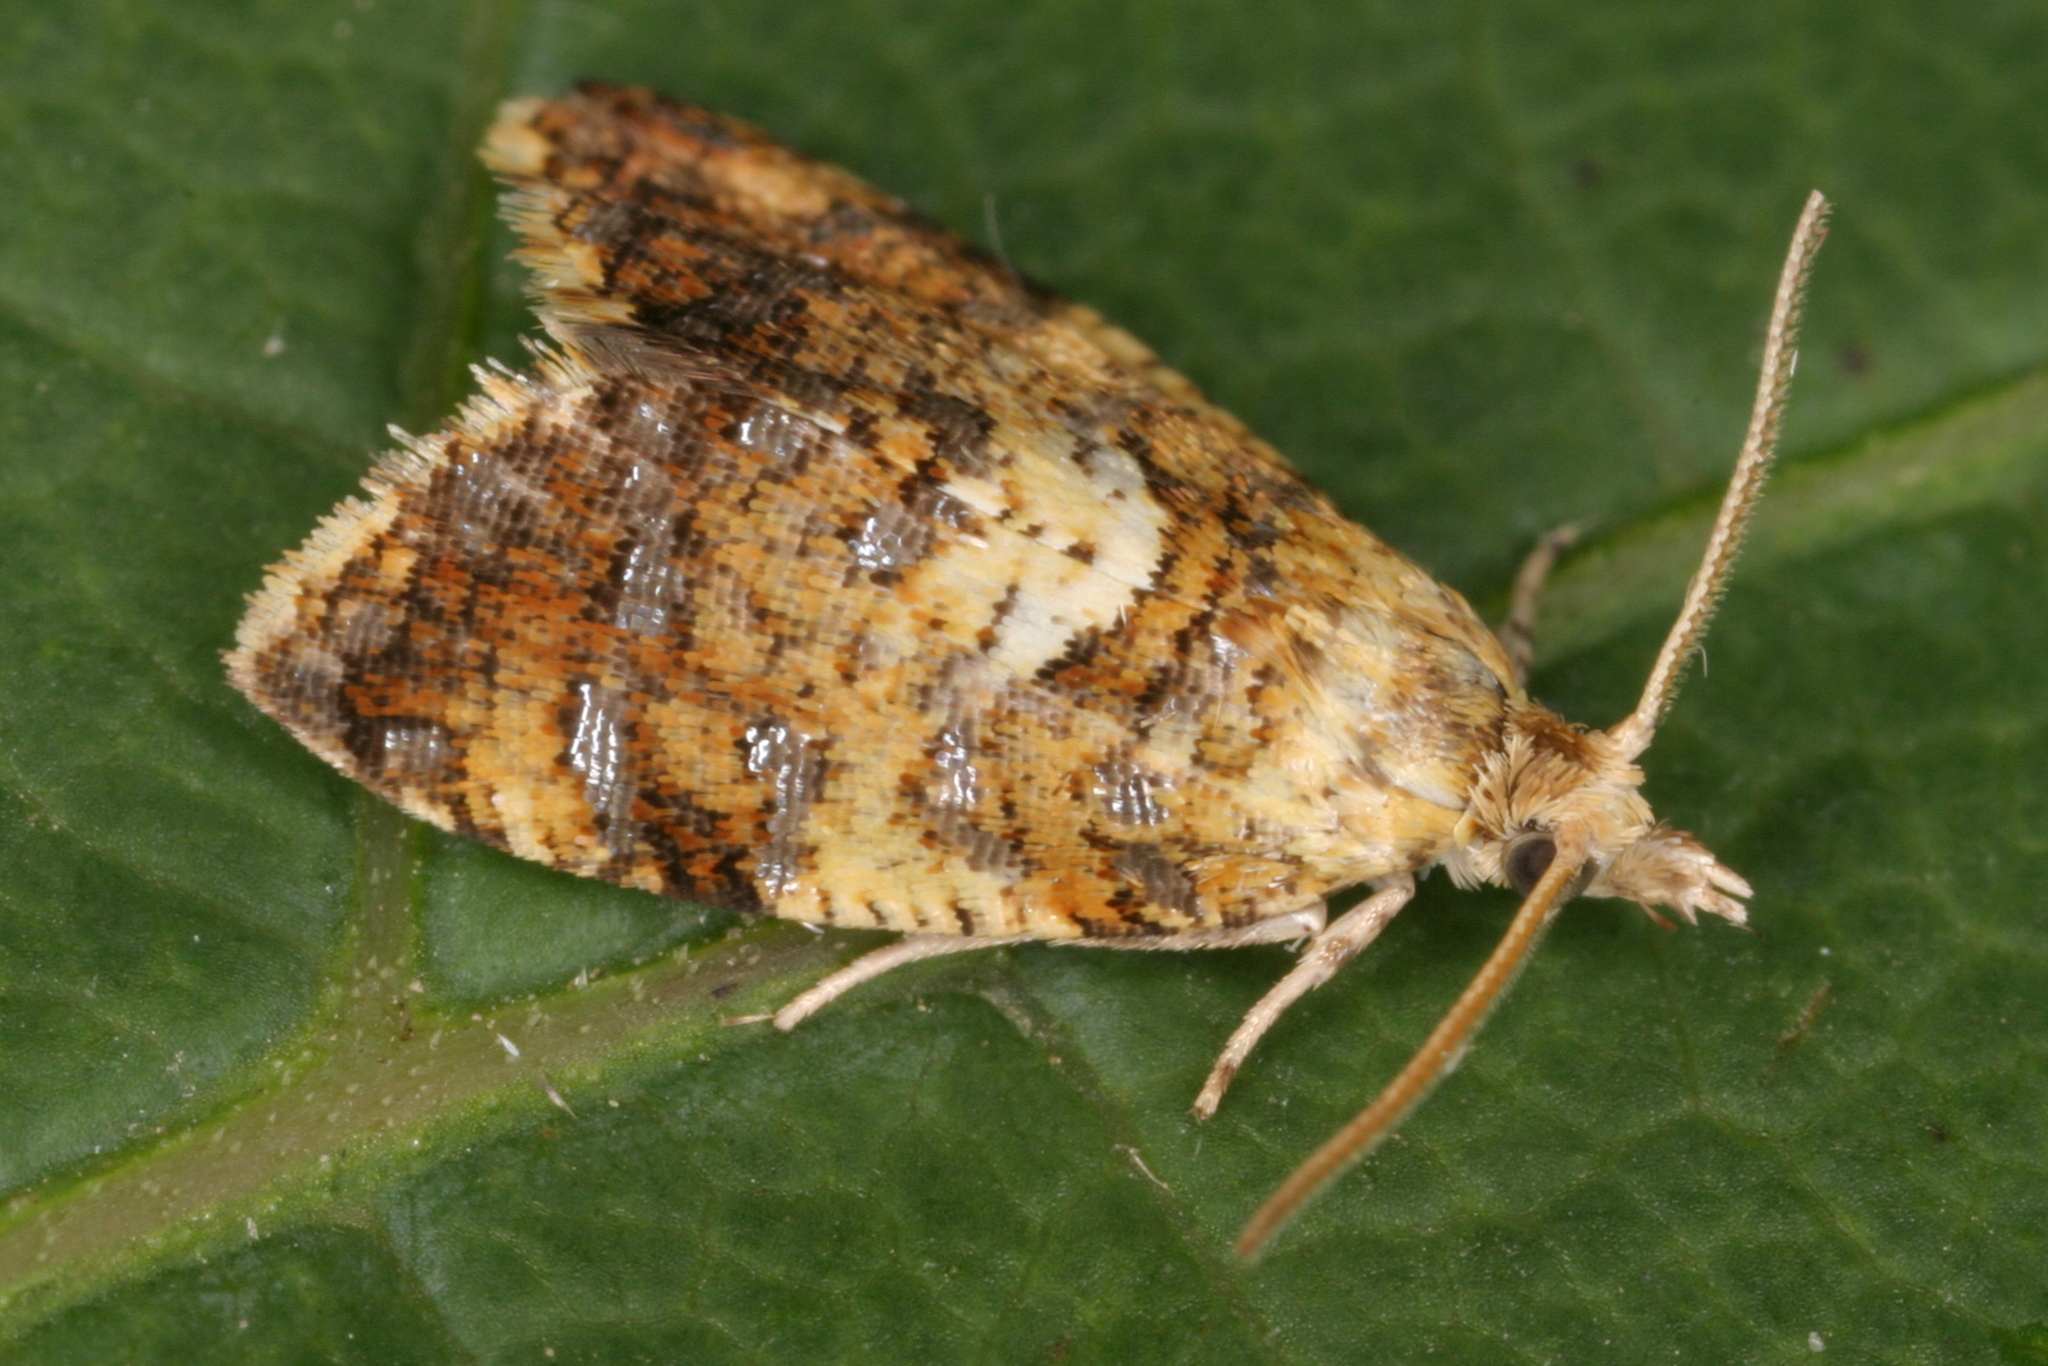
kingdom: Animalia
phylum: Arthropoda
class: Insecta
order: Lepidoptera
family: Tortricidae
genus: Pseudargyrotoza
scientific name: Pseudargyrotoza conwagana
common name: Yellow-spot twist
